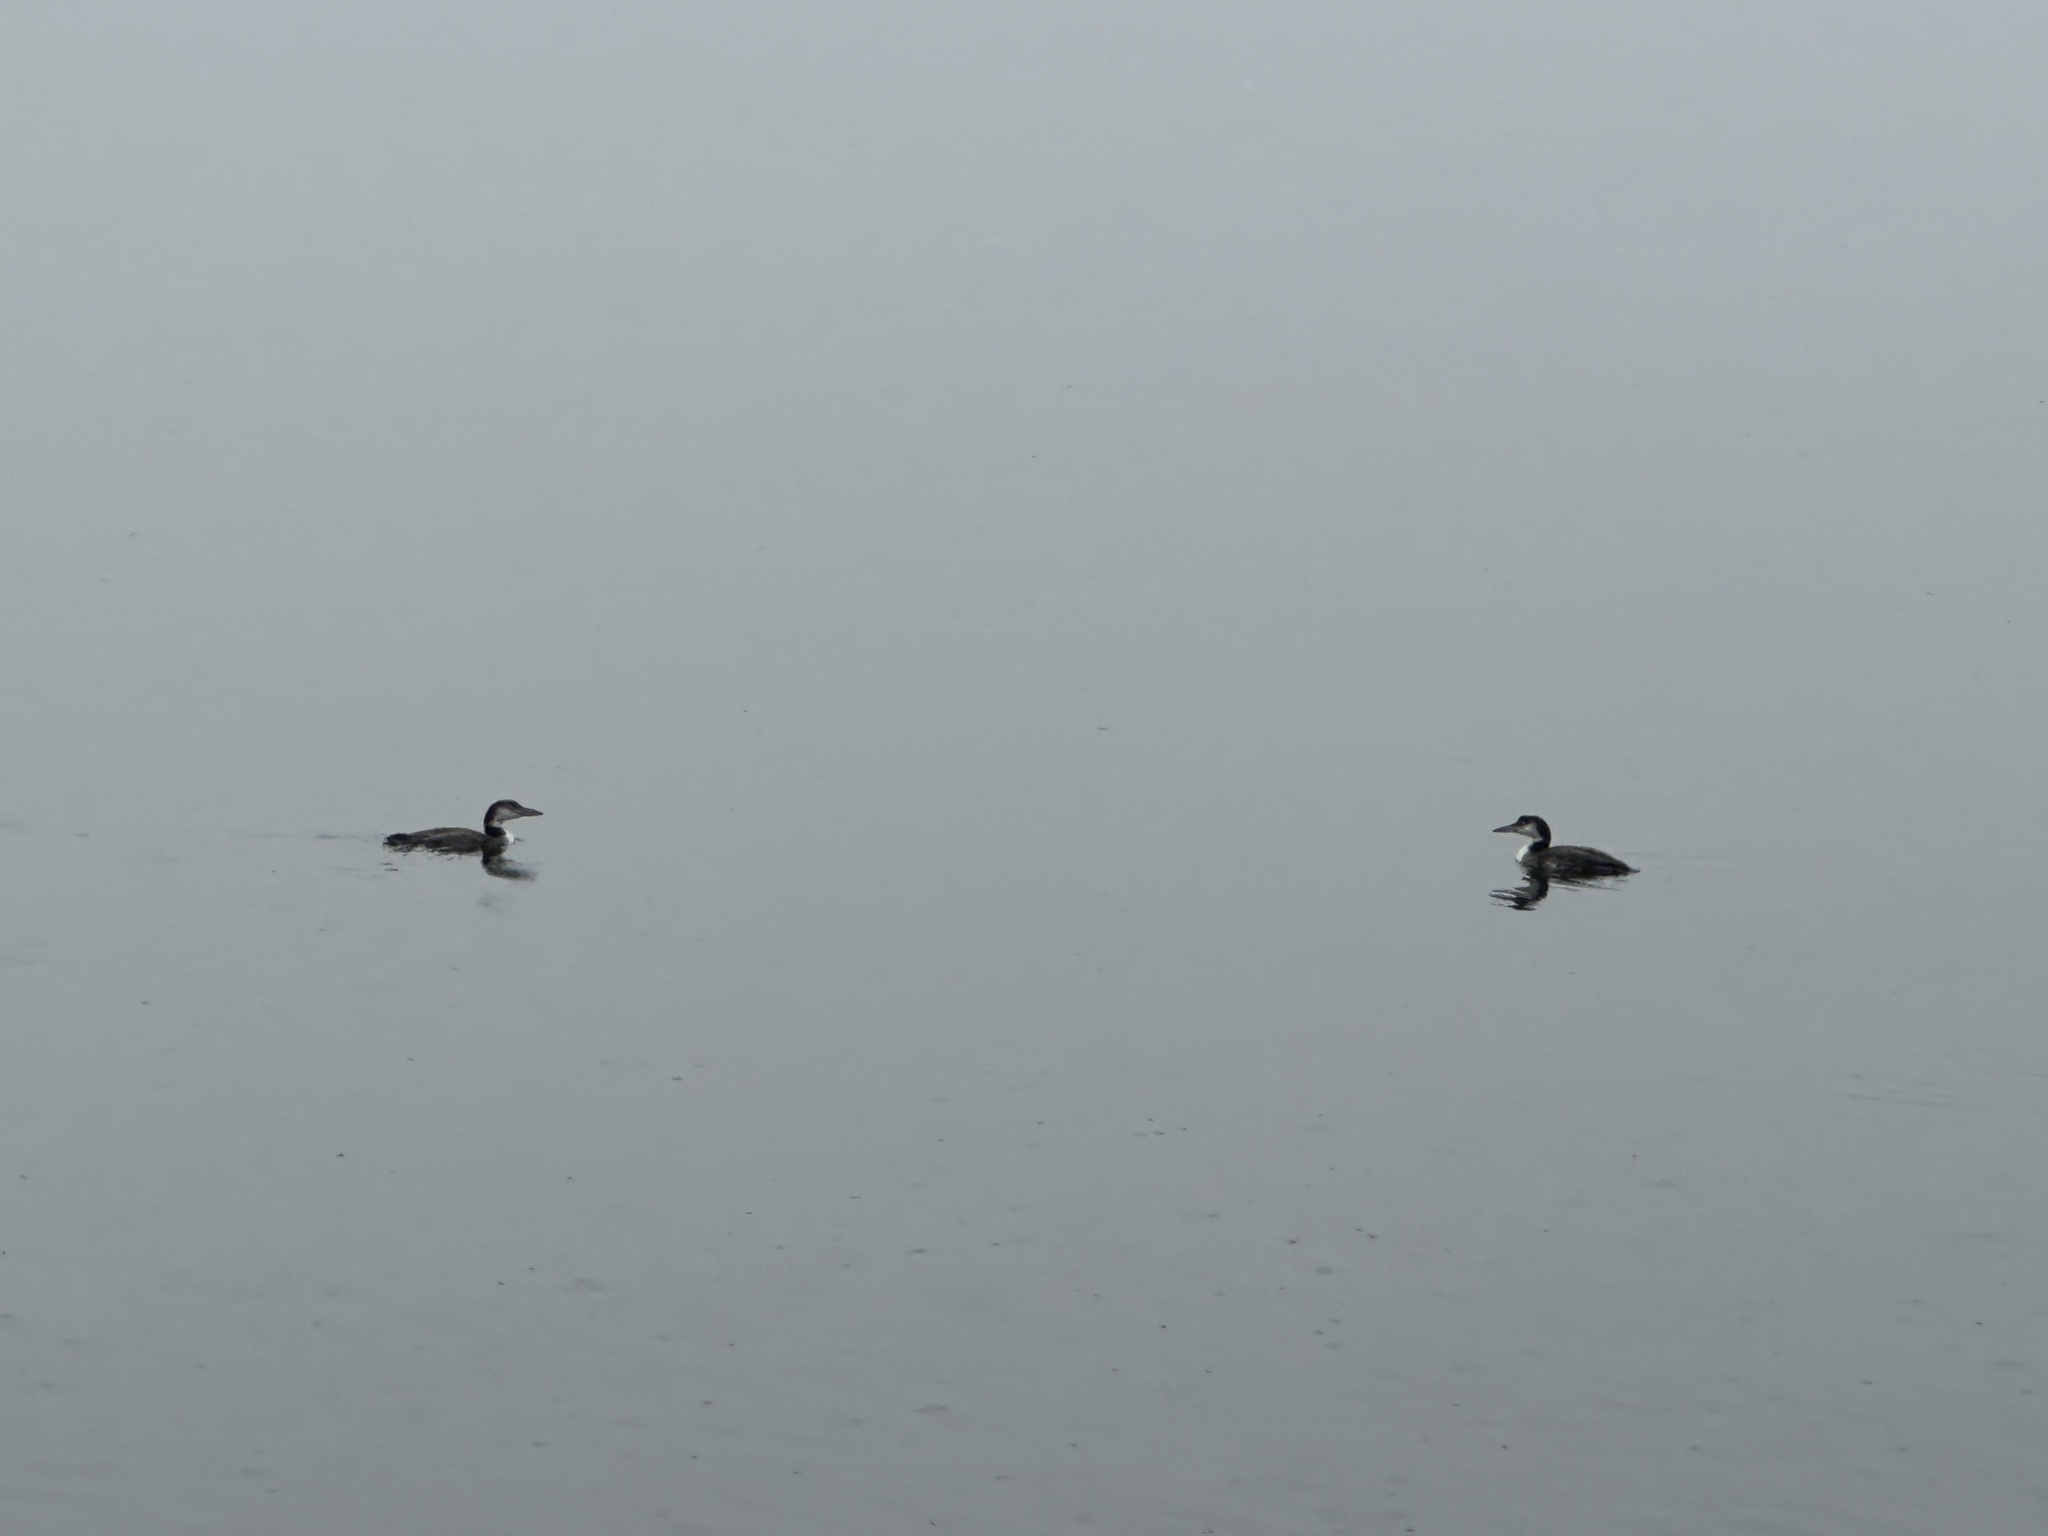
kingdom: Animalia
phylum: Chordata
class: Aves
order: Gaviiformes
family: Gaviidae
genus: Gavia
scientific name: Gavia immer
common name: Common loon
